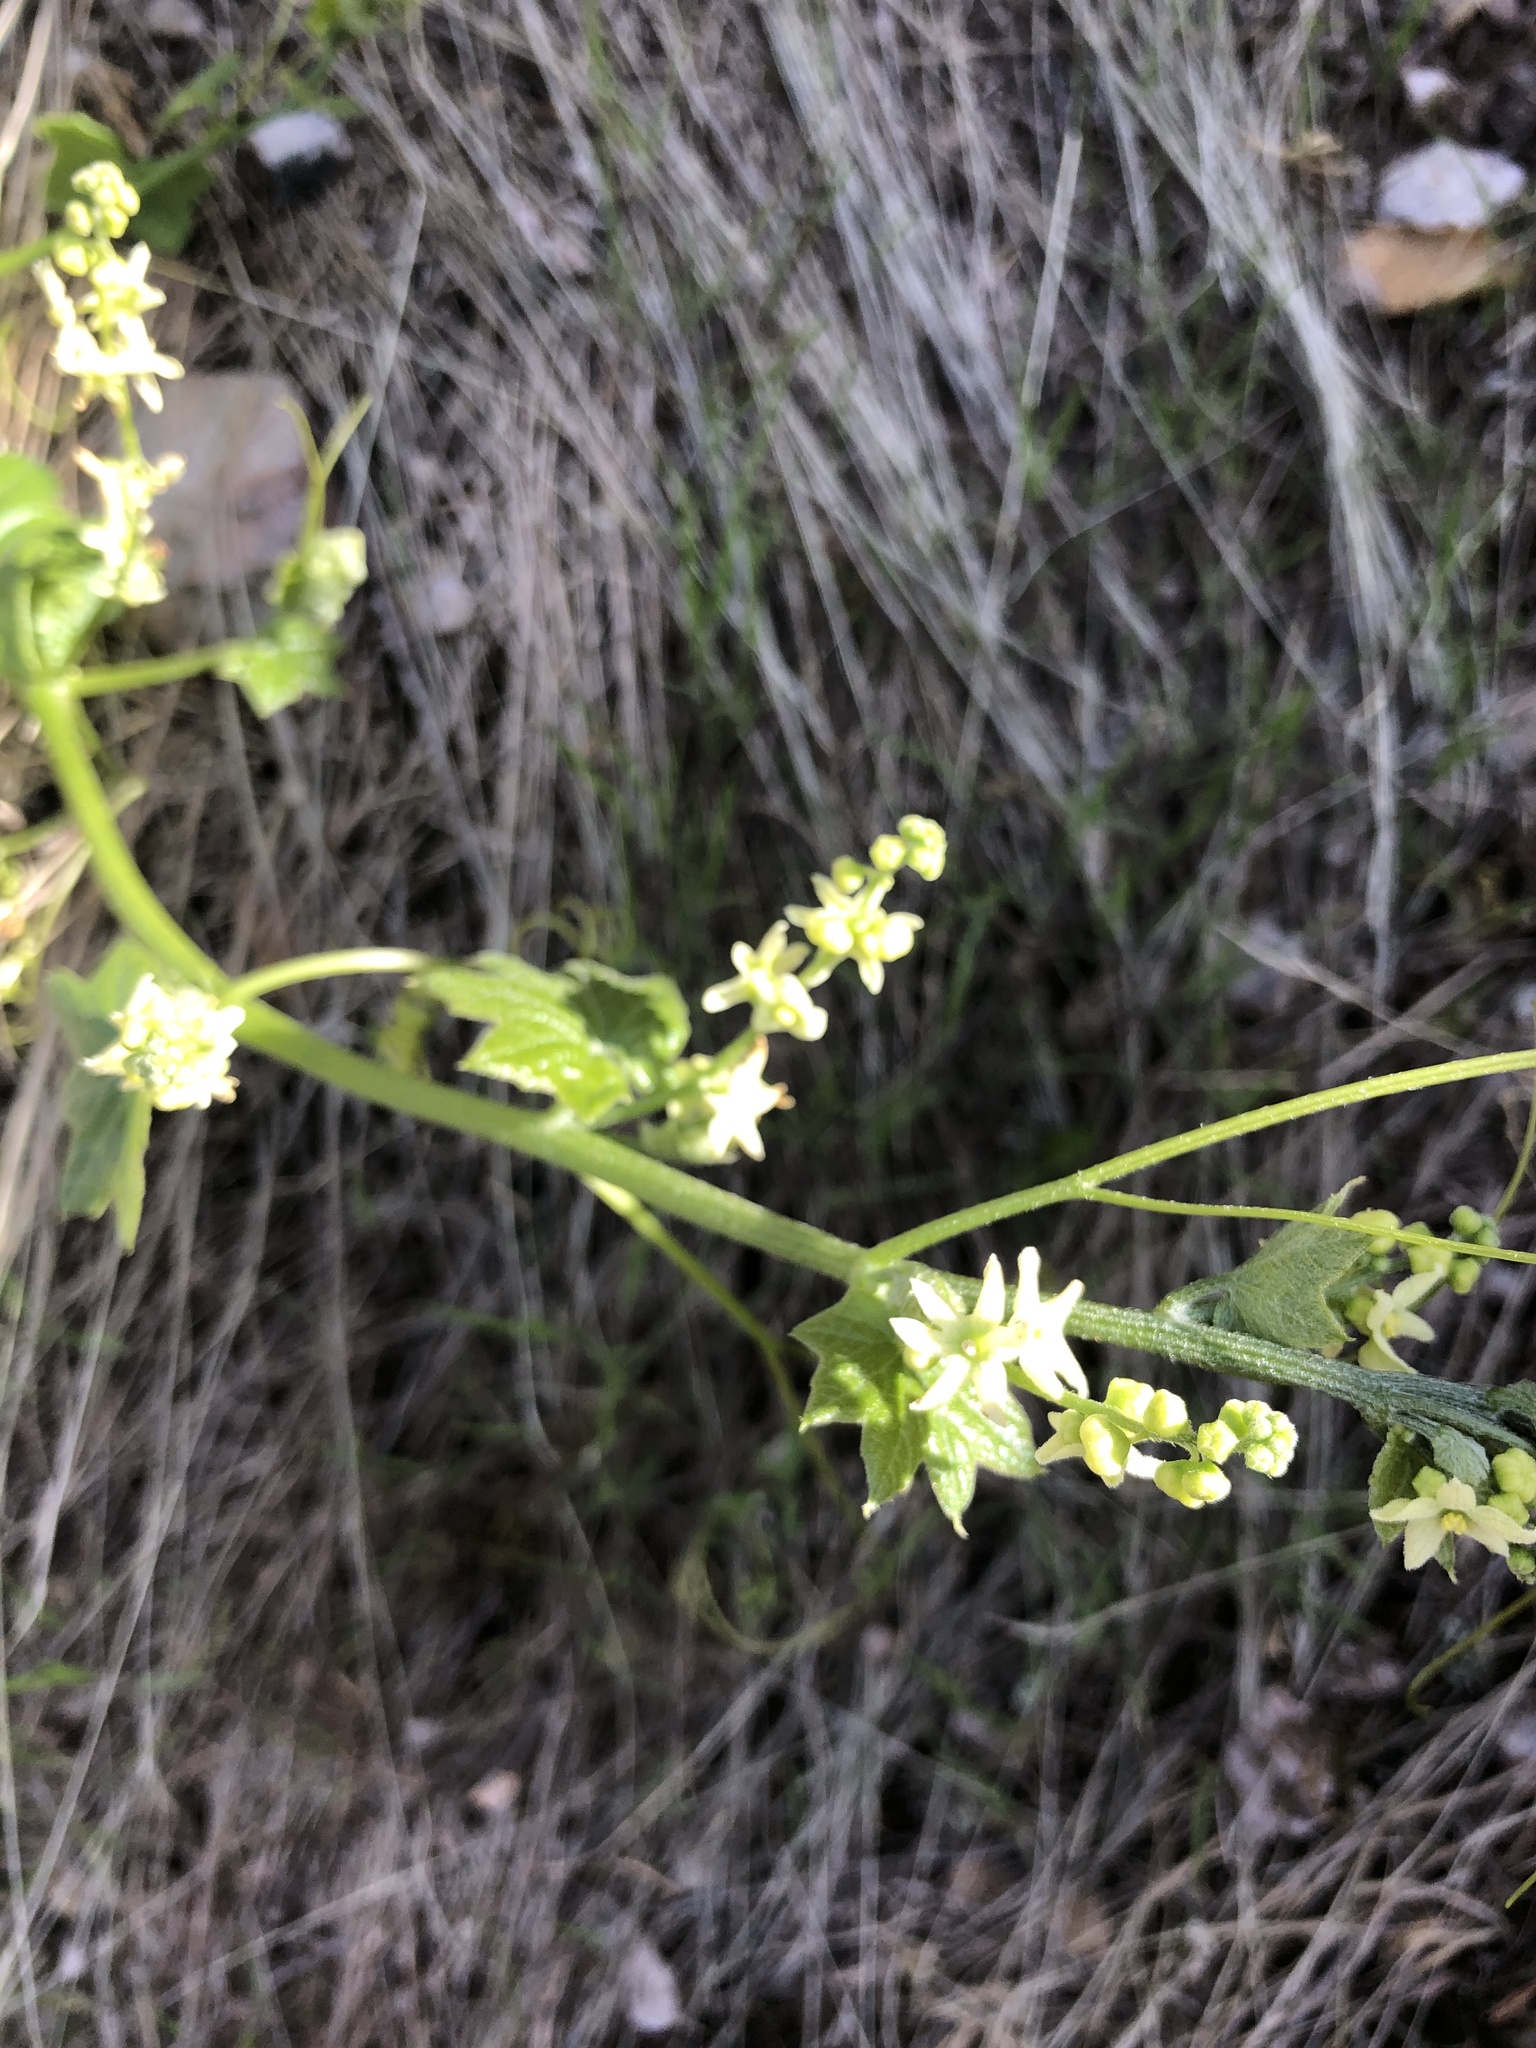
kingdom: Plantae
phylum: Tracheophyta
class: Magnoliopsida
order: Cucurbitales
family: Cucurbitaceae
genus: Marah
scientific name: Marah fabacea
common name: California manroot
